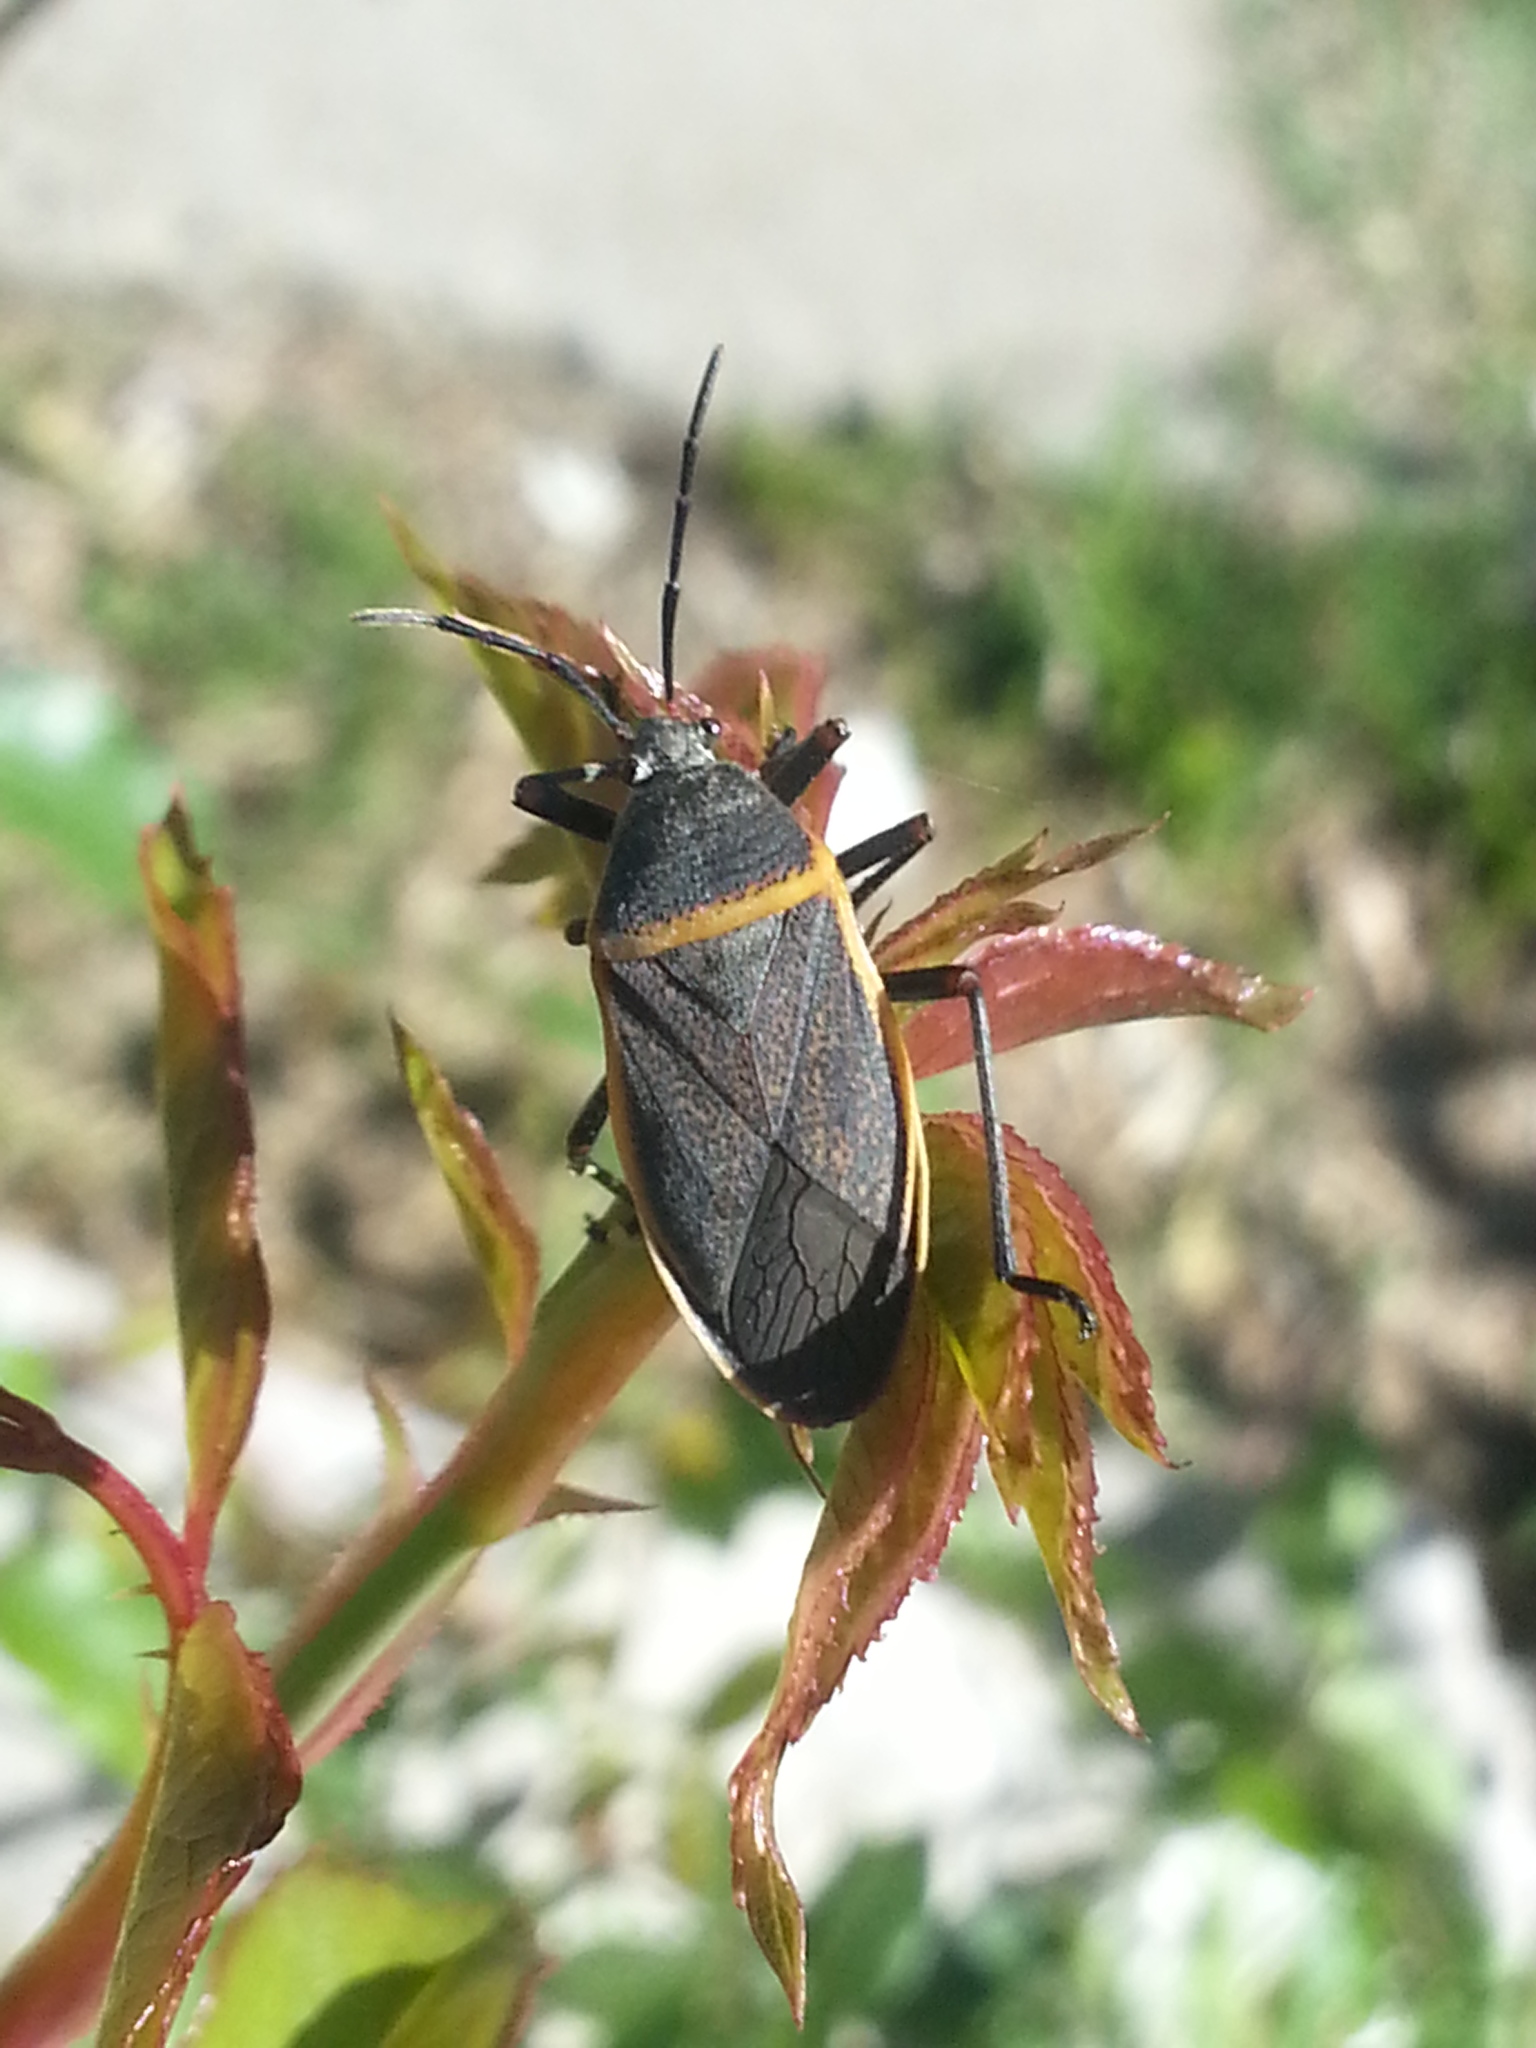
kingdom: Animalia
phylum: Arthropoda
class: Insecta
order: Hemiptera
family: Largidae
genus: Largus
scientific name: Largus californicus
